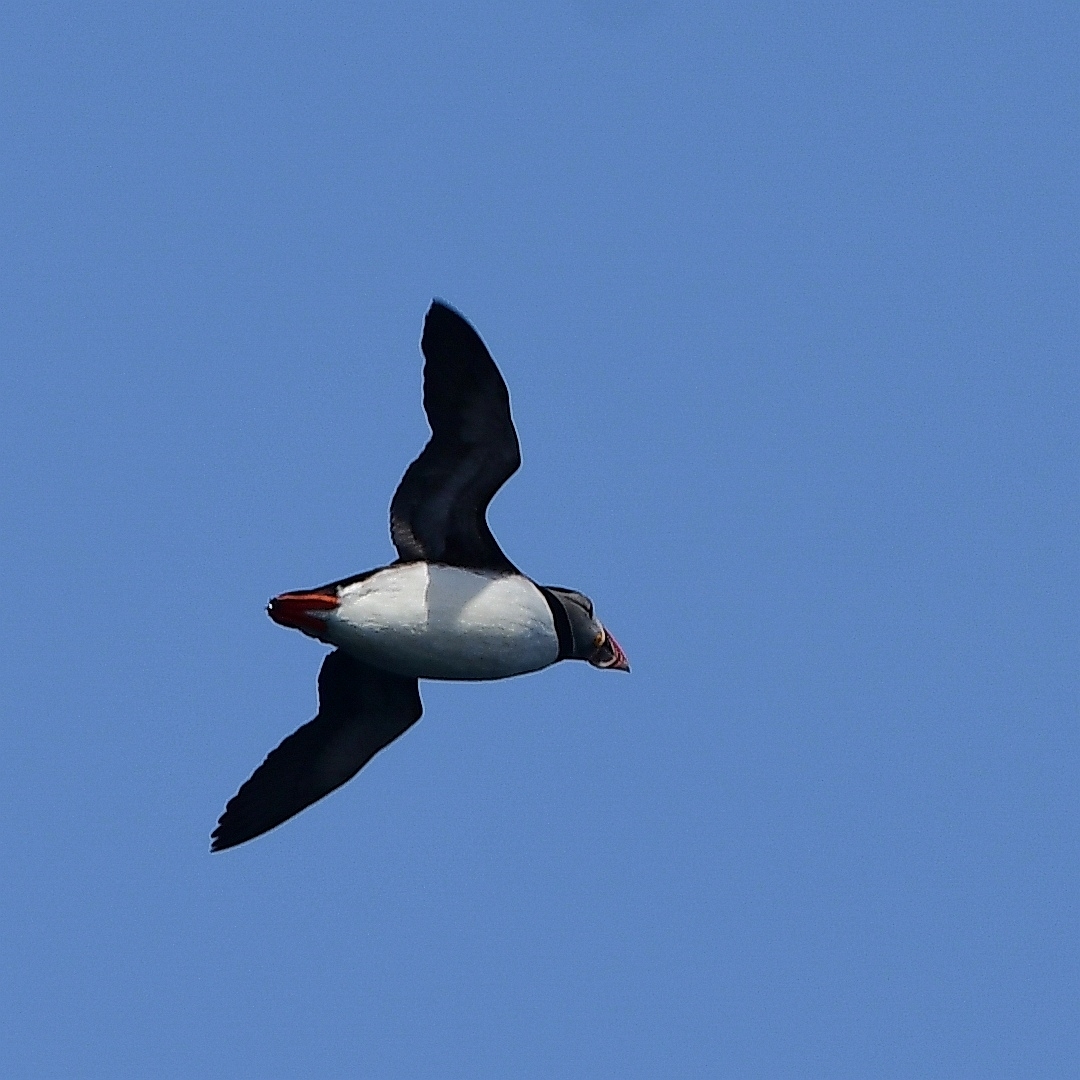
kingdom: Animalia
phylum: Chordata
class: Aves
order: Charadriiformes
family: Alcidae
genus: Fratercula
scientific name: Fratercula arctica
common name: Atlantic puffin
